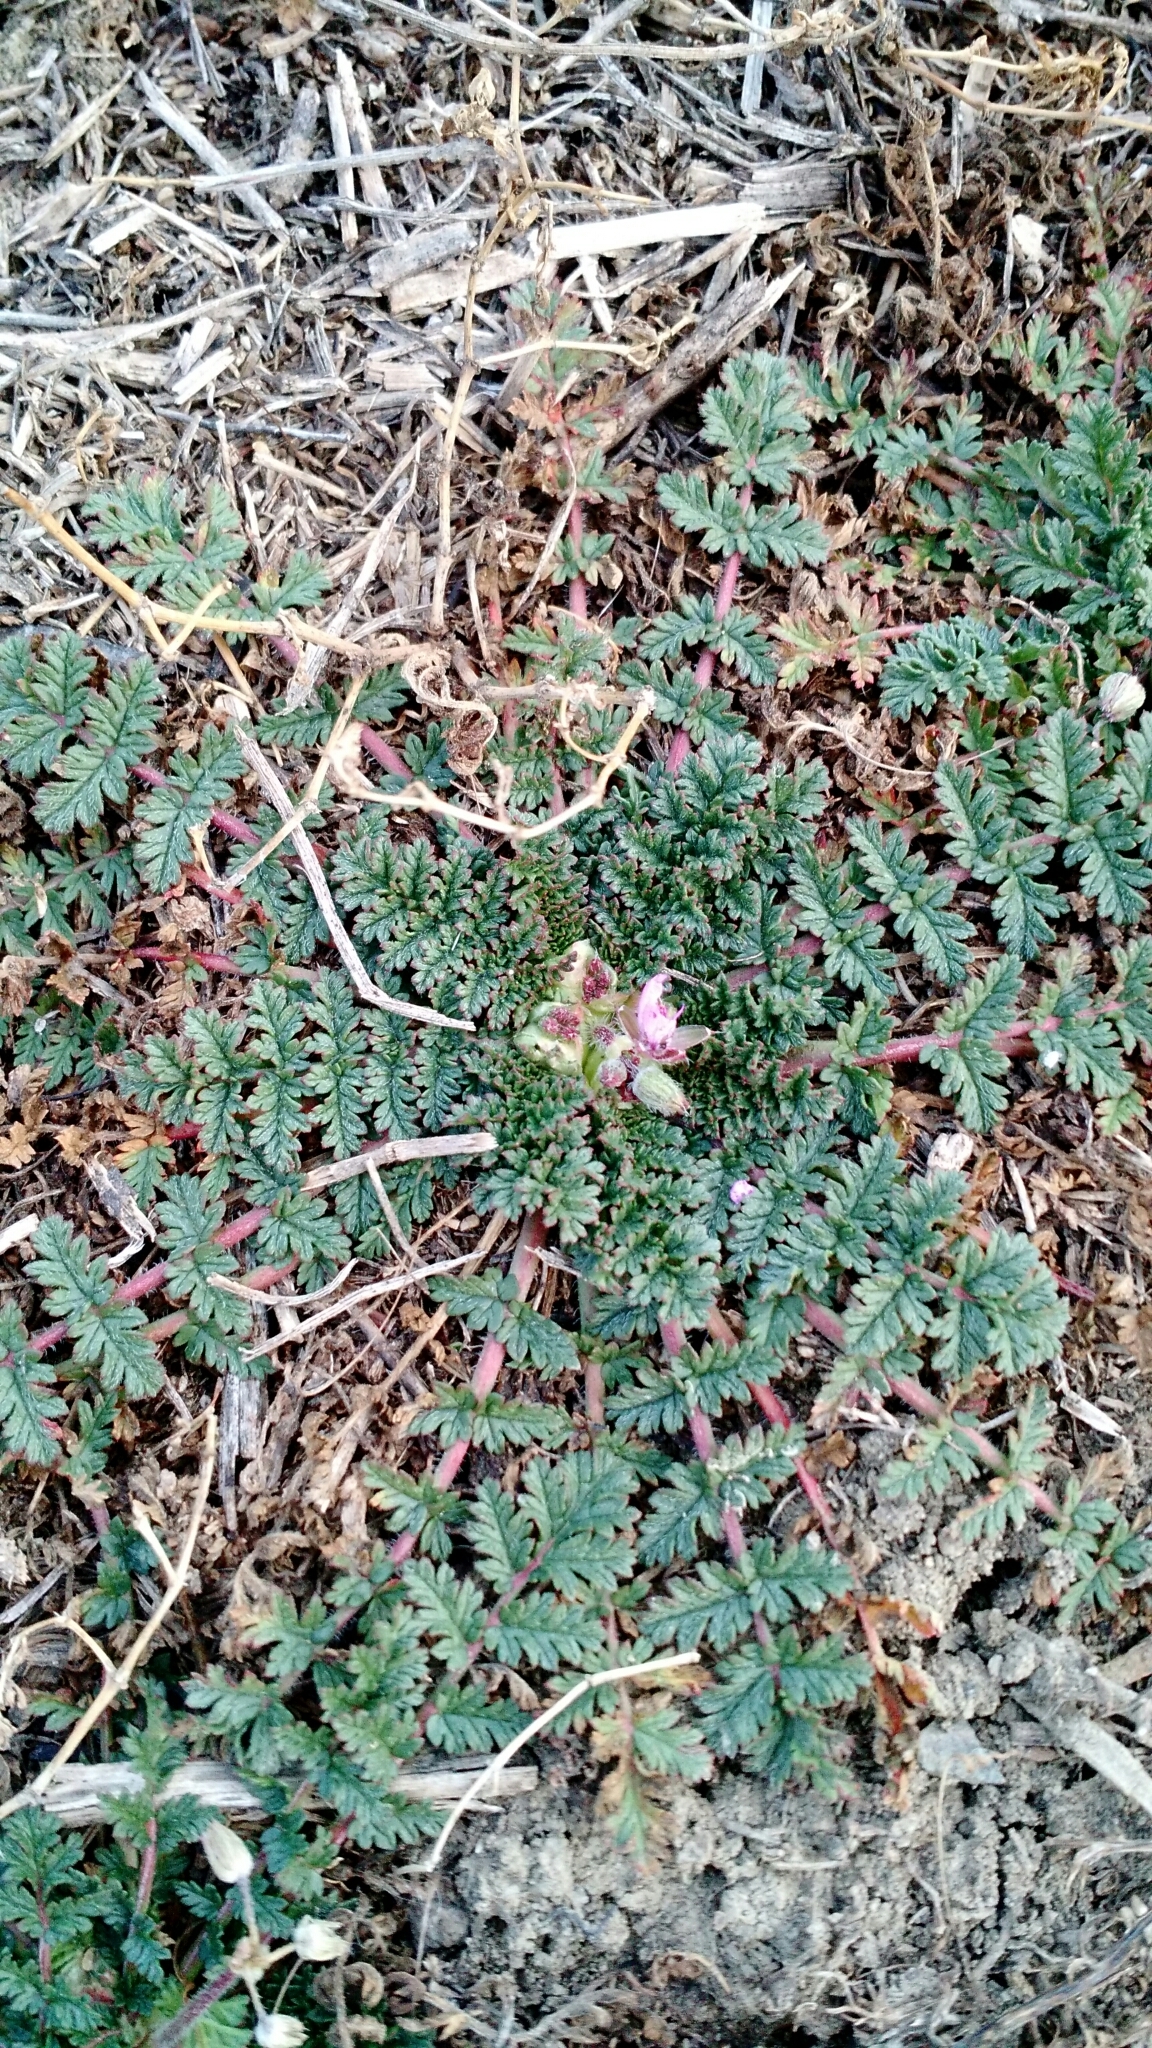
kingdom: Plantae
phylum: Tracheophyta
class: Magnoliopsida
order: Geraniales
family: Geraniaceae
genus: Erodium
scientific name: Erodium cicutarium
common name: Common stork's-bill
